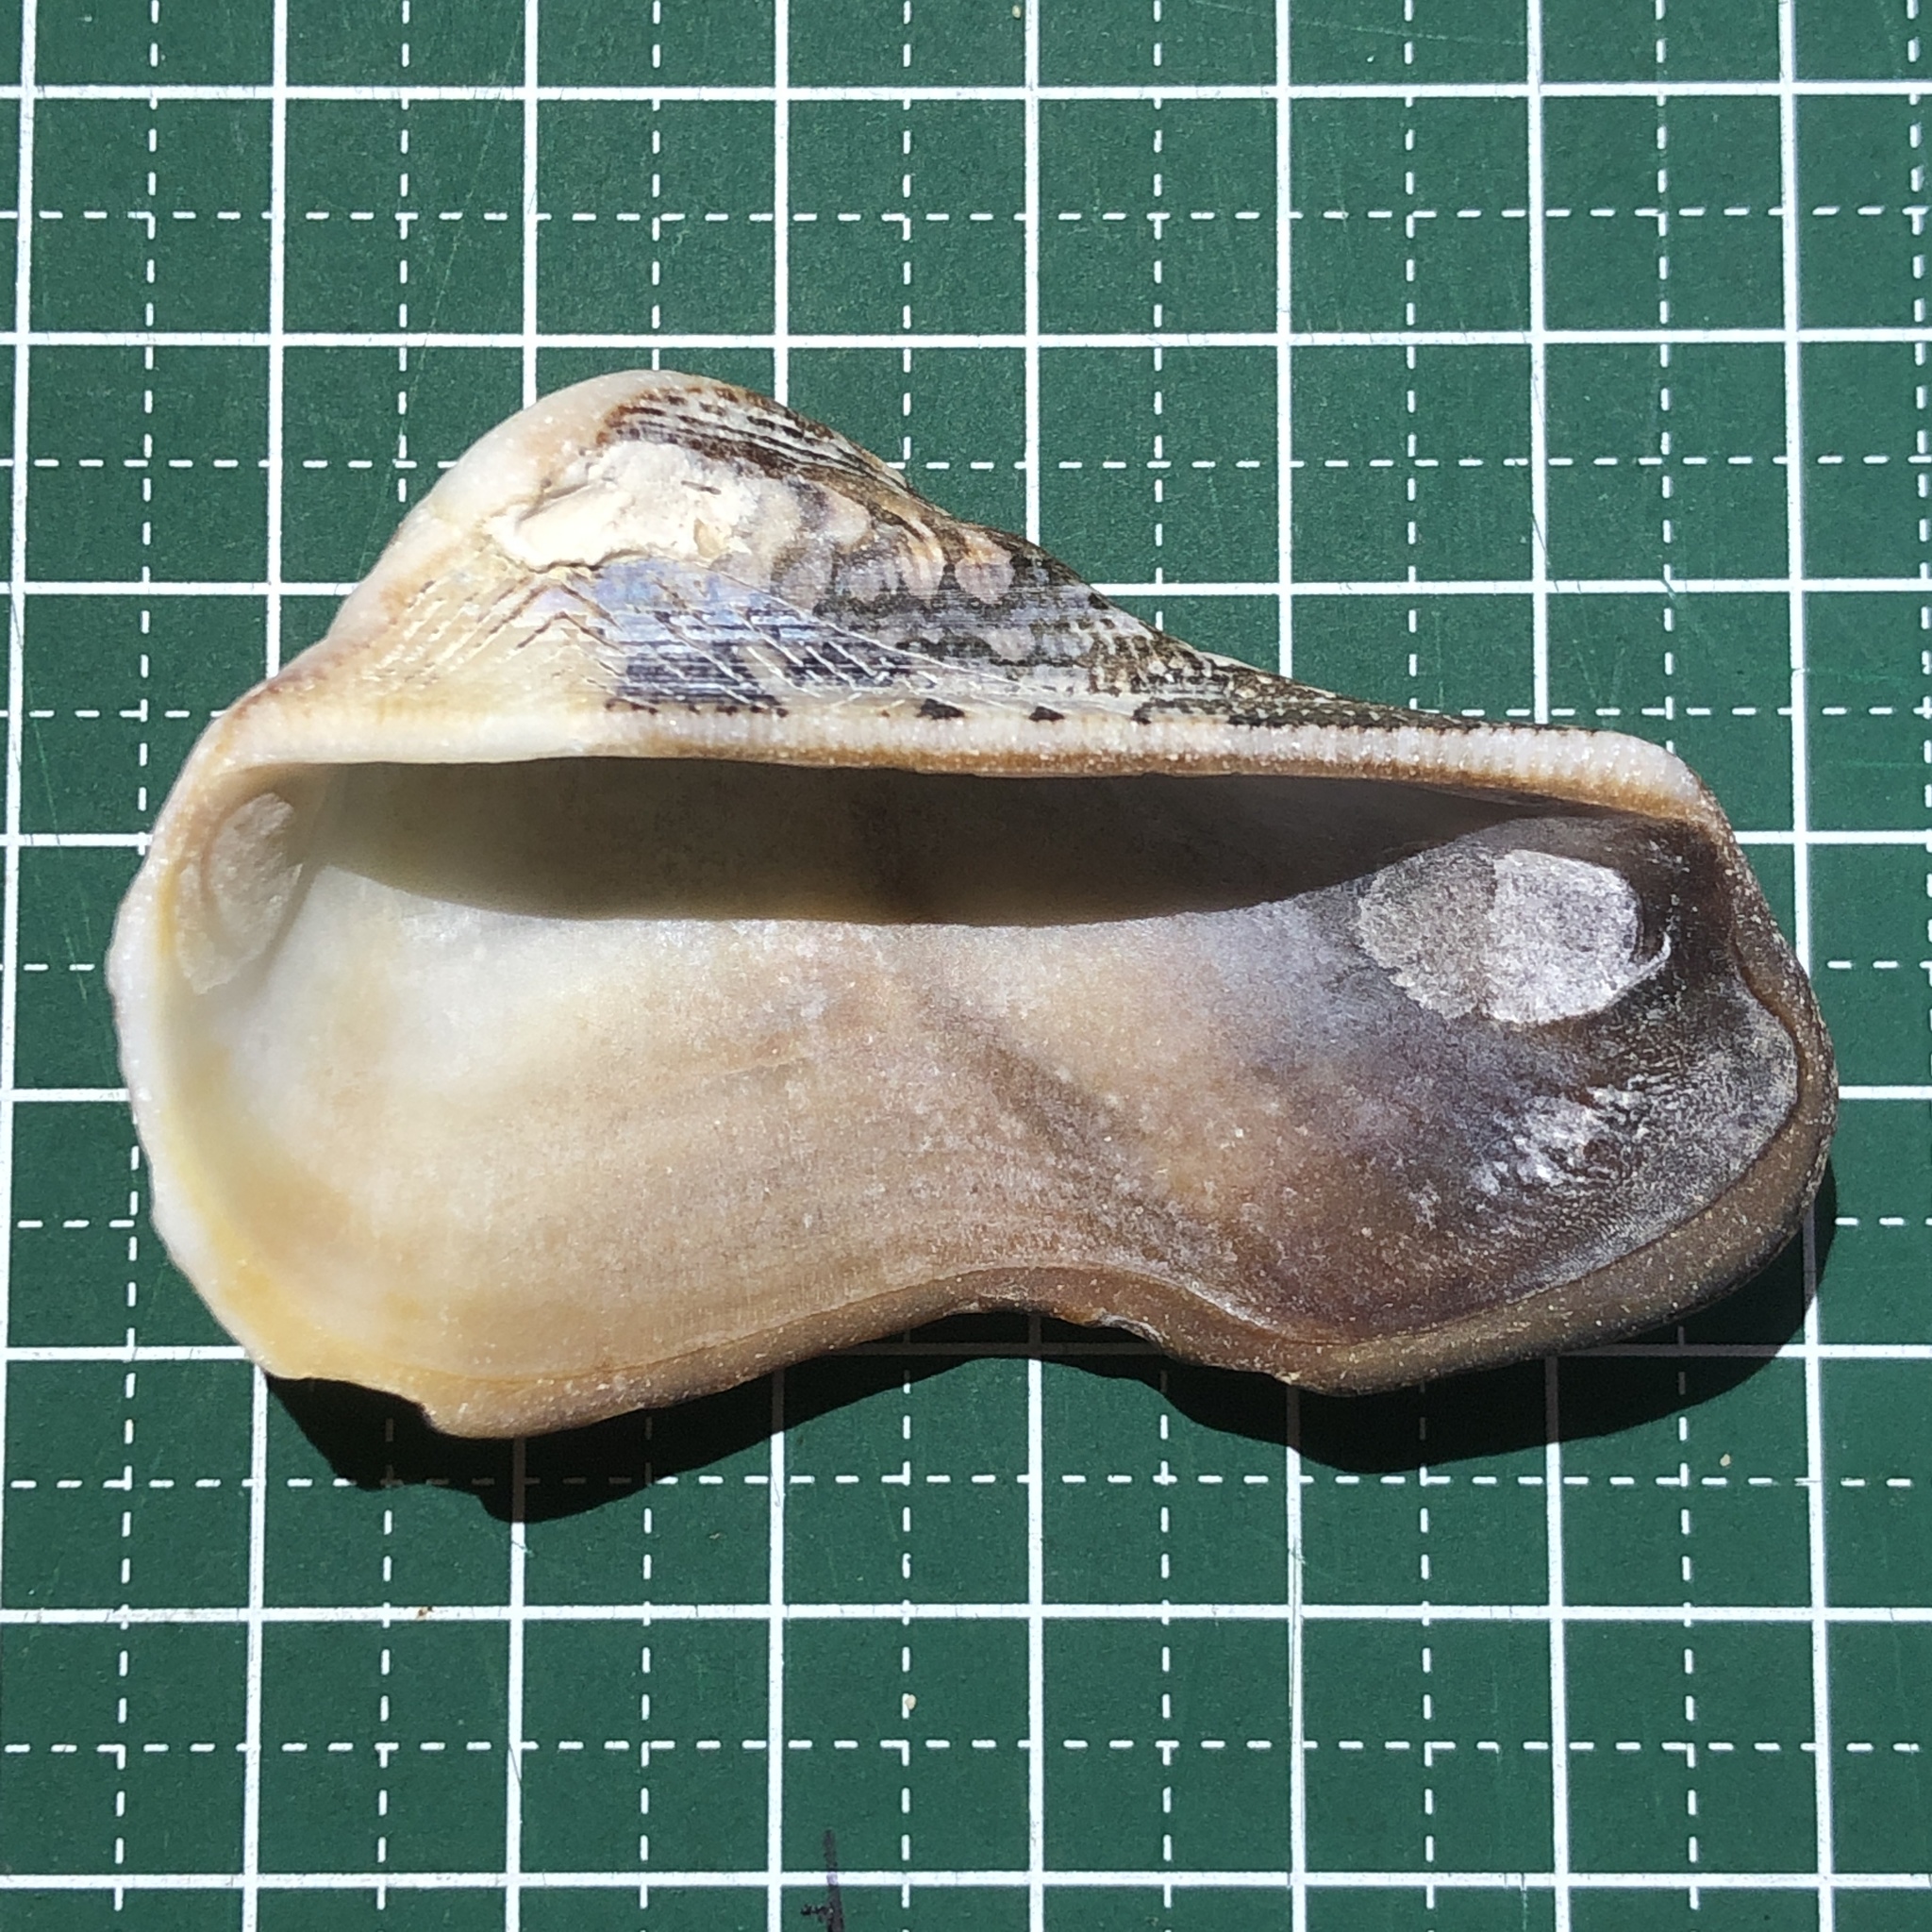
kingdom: Animalia
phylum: Mollusca
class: Bivalvia
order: Arcida
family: Arcidae
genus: Lamarcka
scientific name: Lamarcka ventricosa
